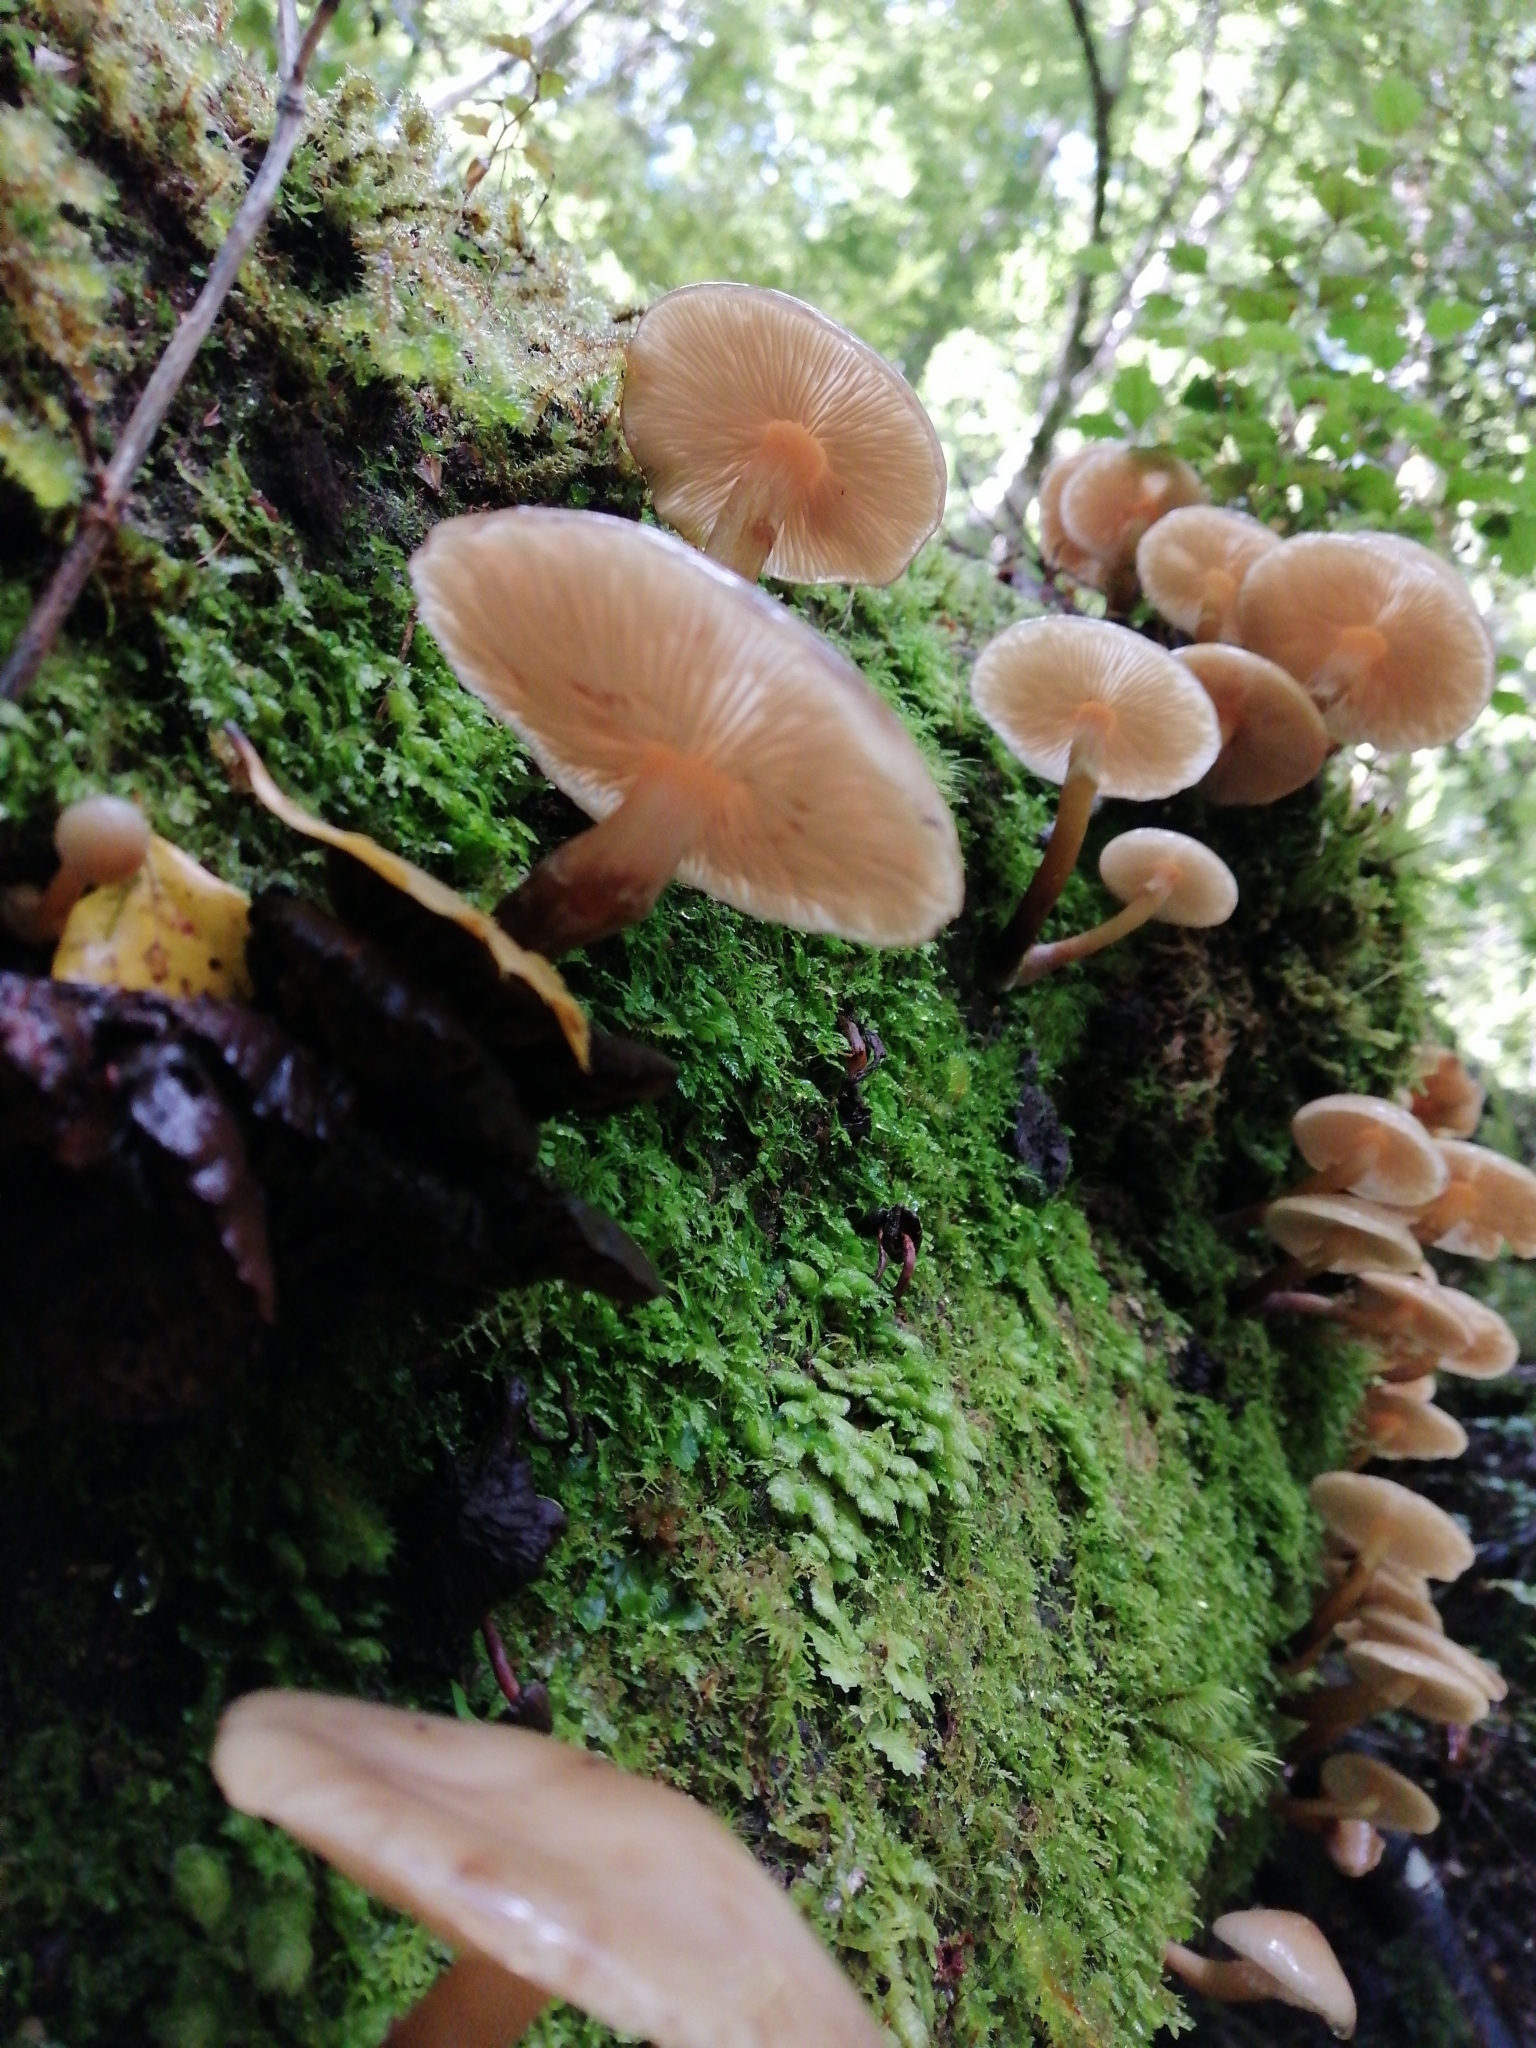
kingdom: Fungi
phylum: Basidiomycota
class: Agaricomycetes
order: Agaricales
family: Physalacriaceae
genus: Armillaria
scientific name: Armillaria novae-zelandiae
